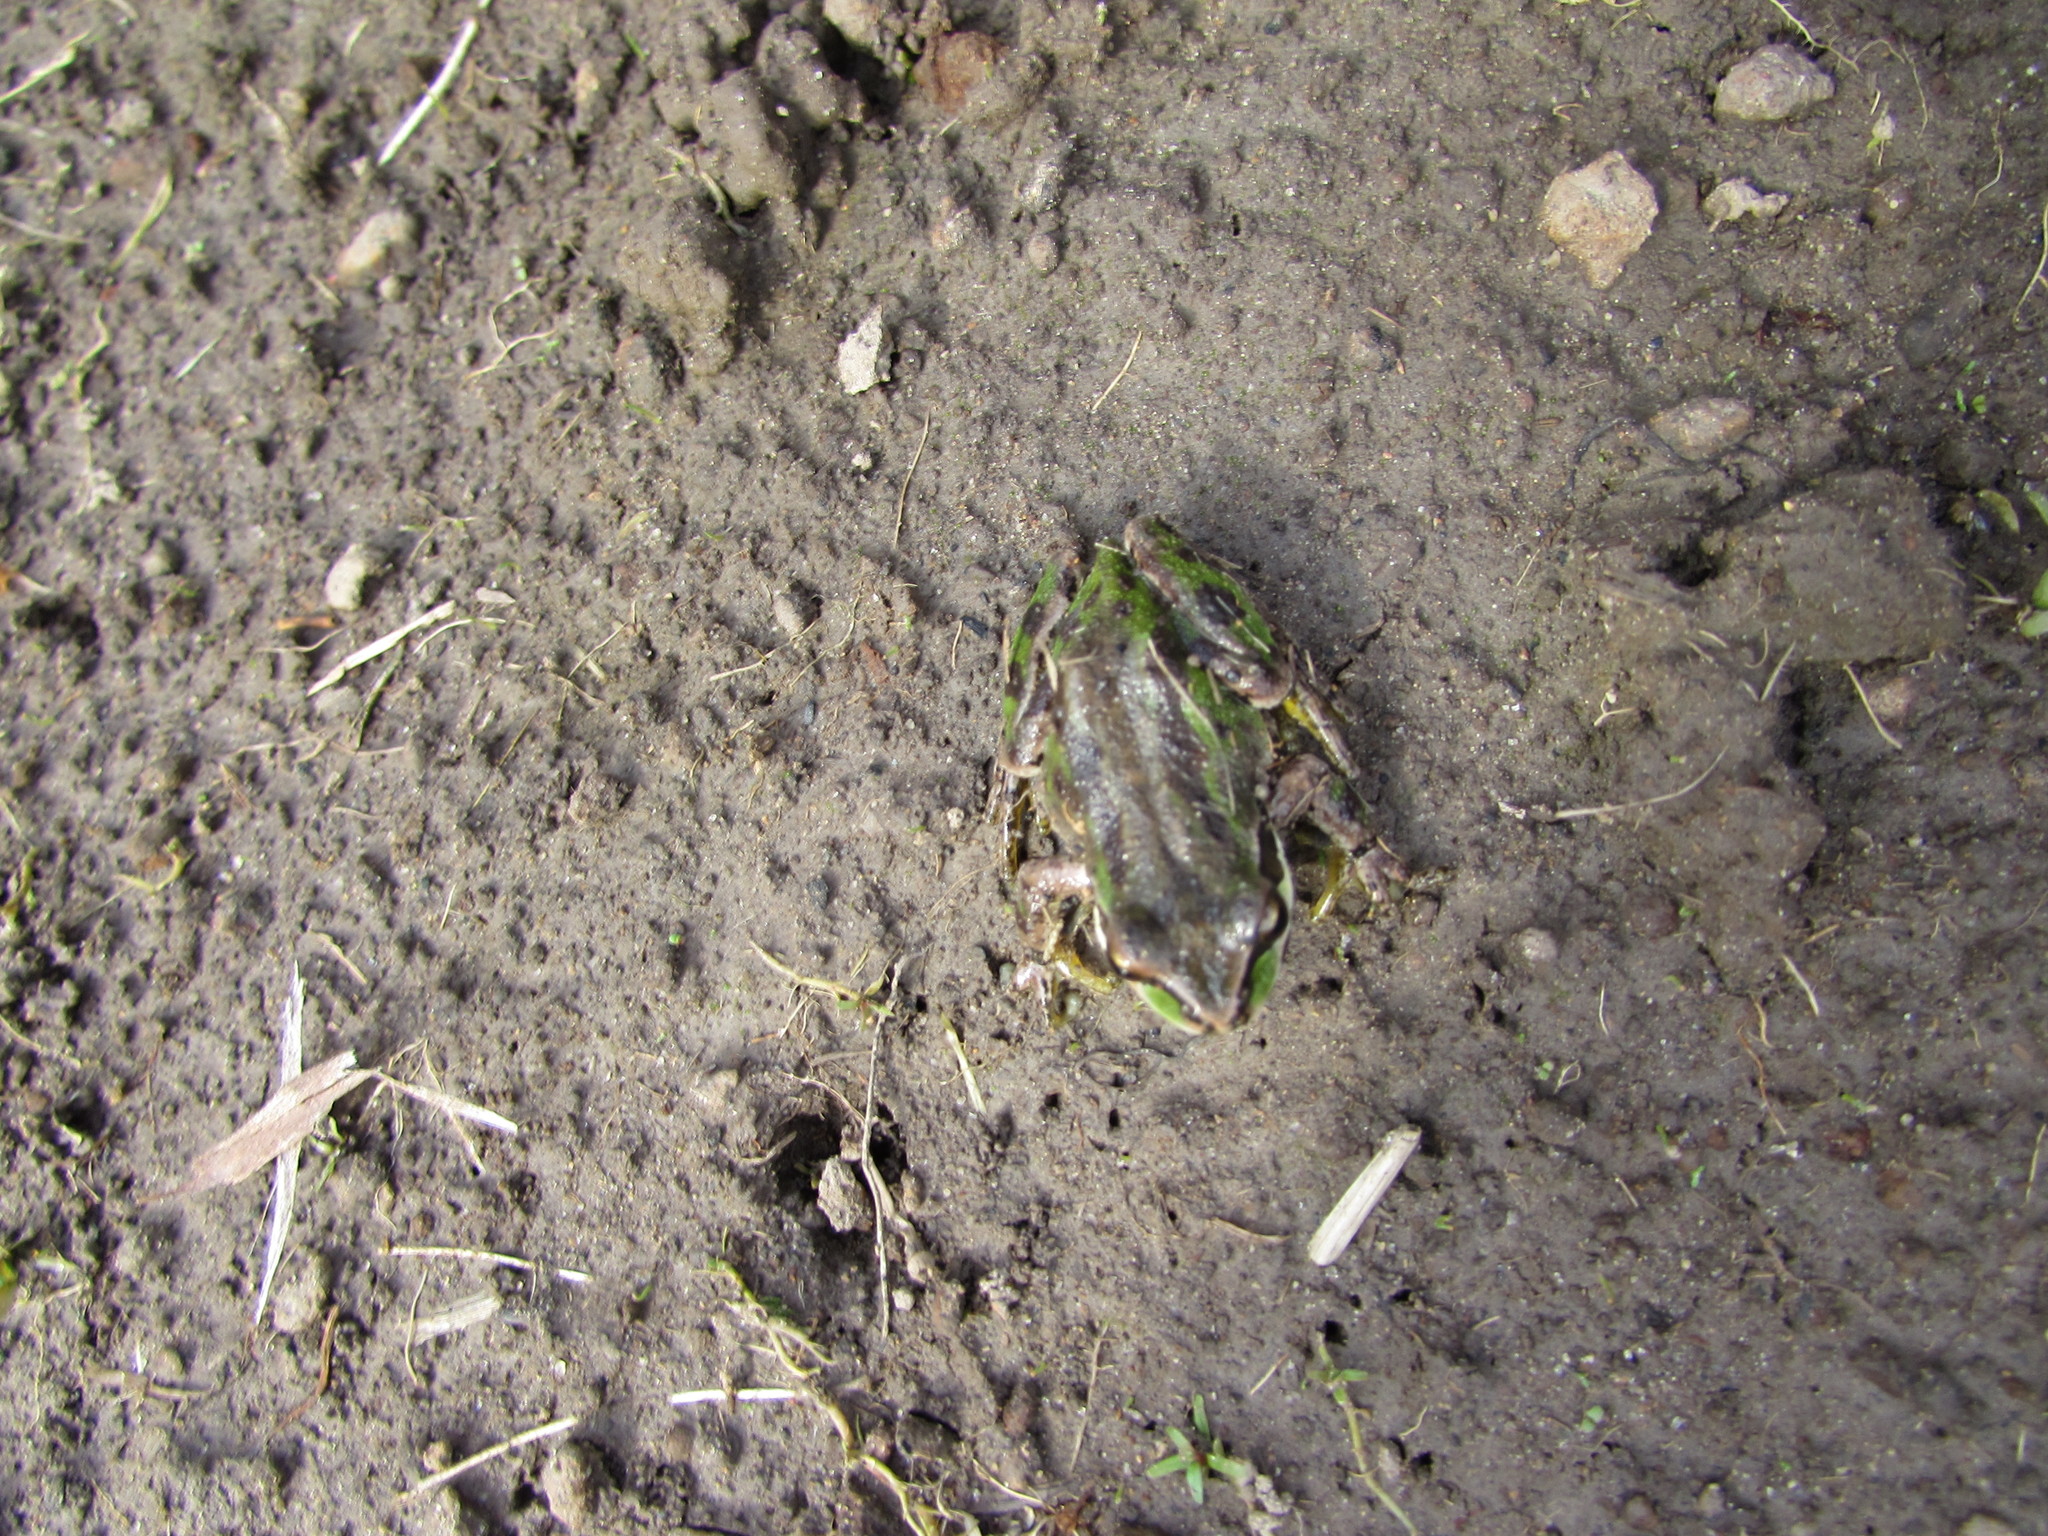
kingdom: Animalia
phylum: Chordata
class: Amphibia
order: Anura
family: Hylidae
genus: Pseudacris
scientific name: Pseudacris regilla
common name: Pacific chorus frog
